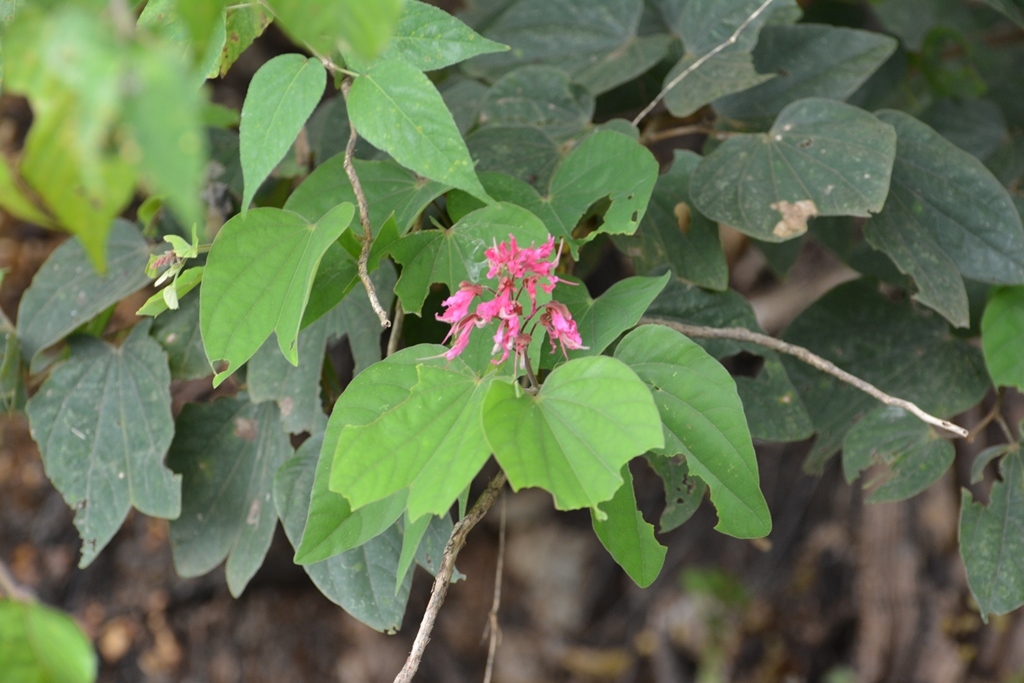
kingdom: Plantae
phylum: Tracheophyta
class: Magnoliopsida
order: Fabales
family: Fabaceae
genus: Bauhinia
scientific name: Bauhinia divaricata
